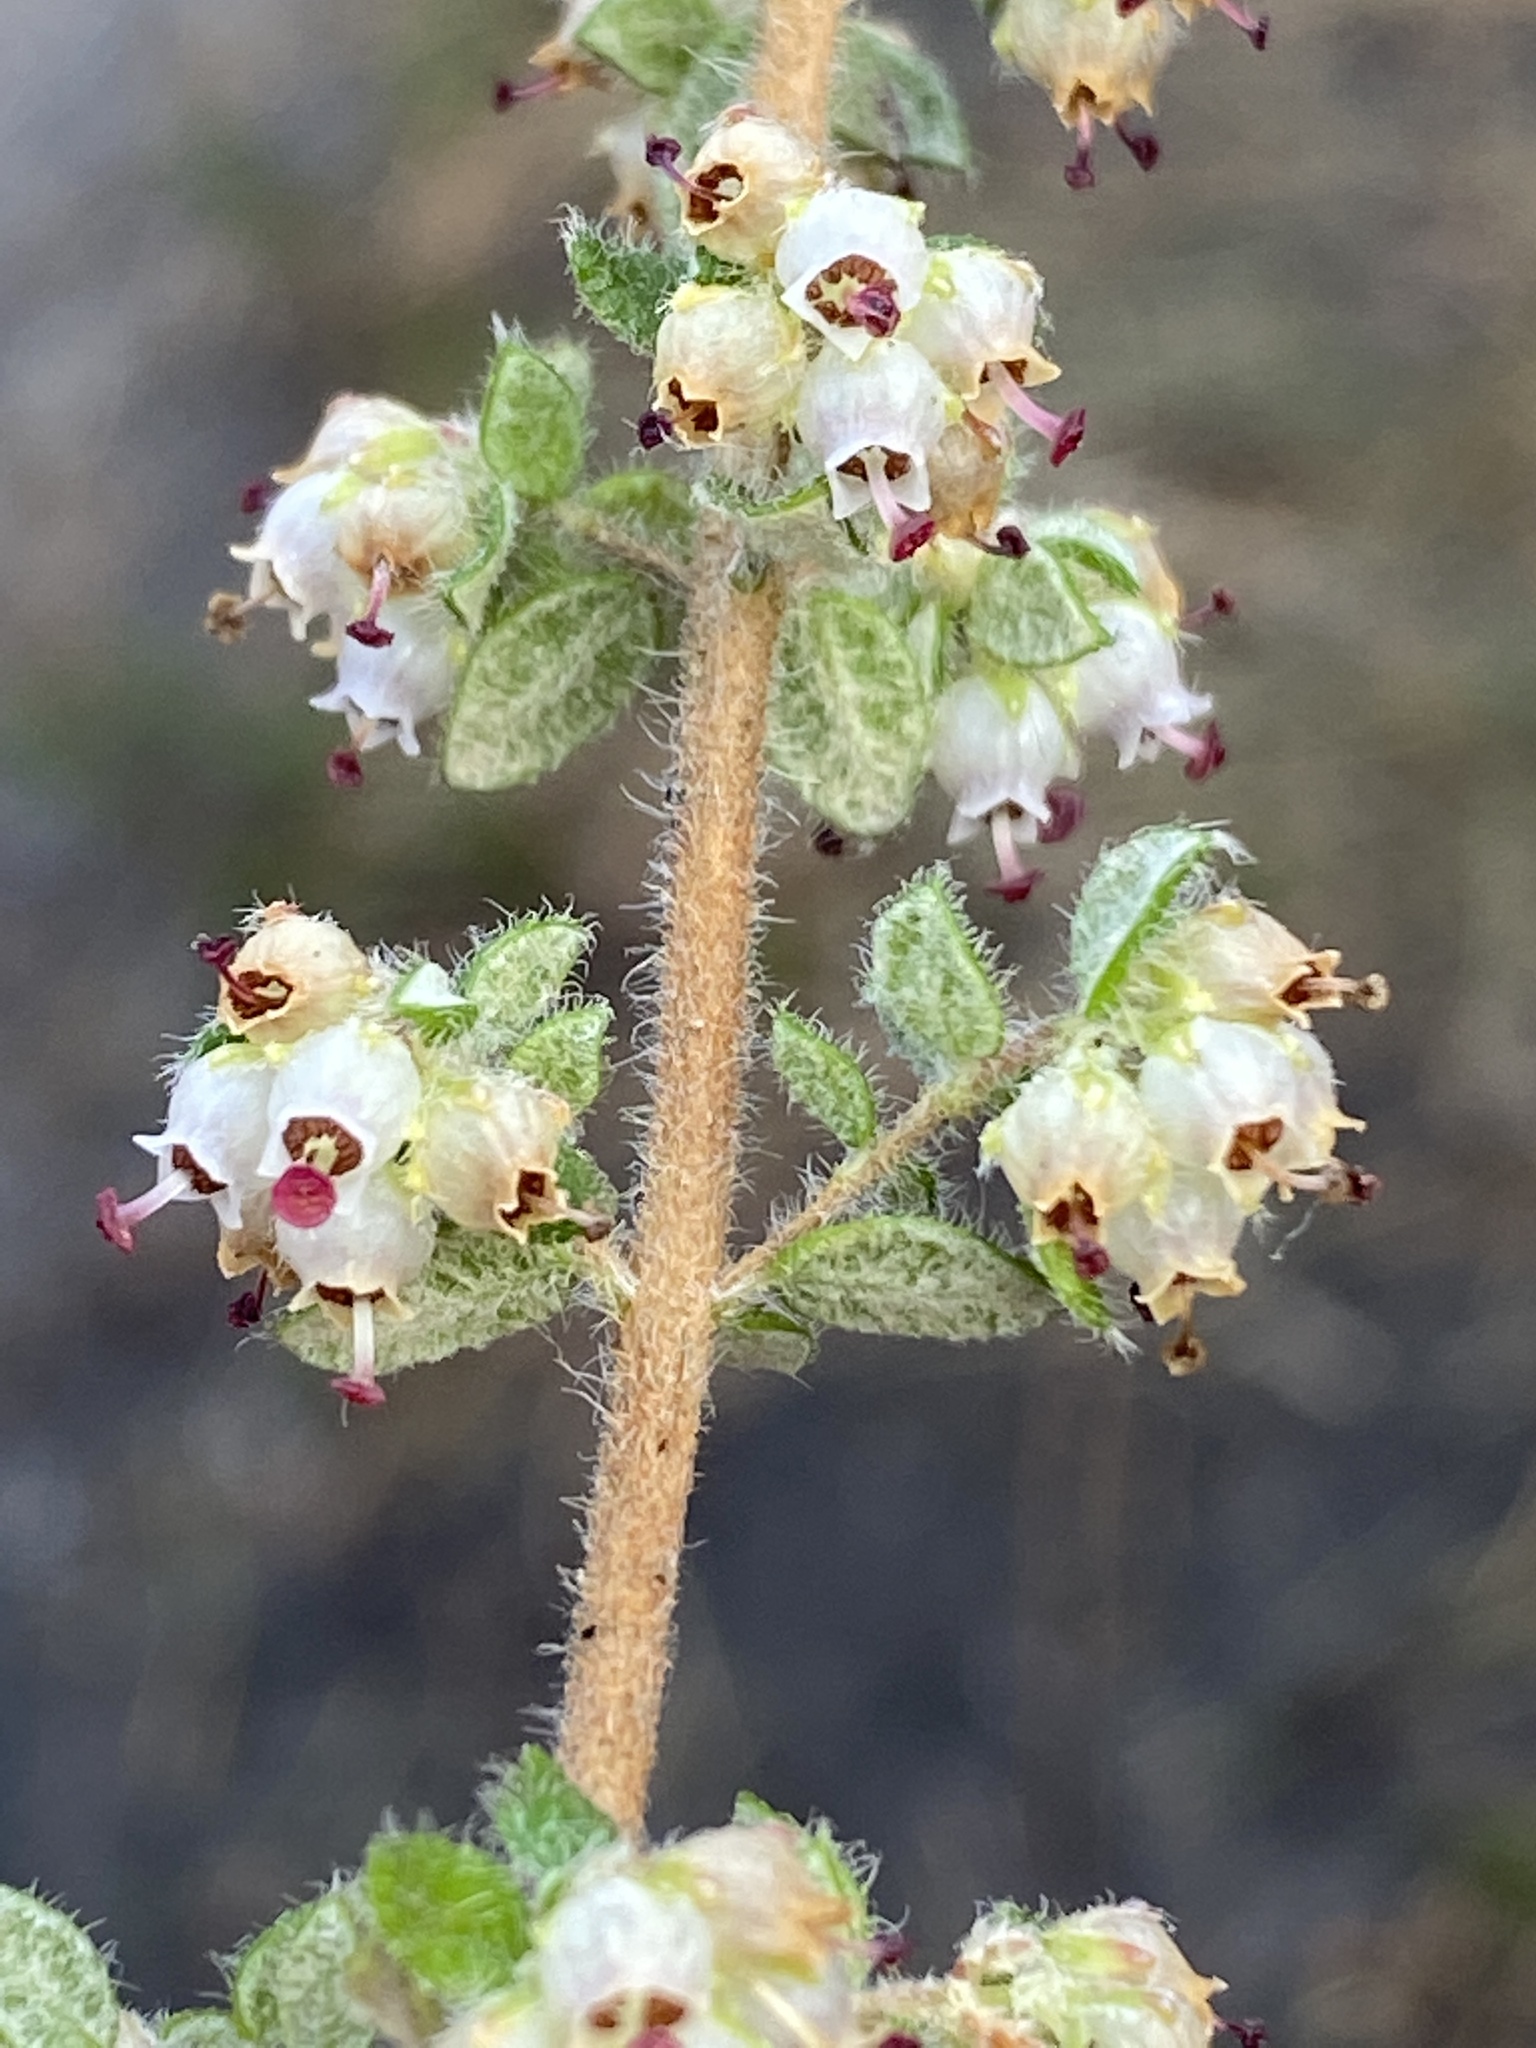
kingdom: Plantae
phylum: Tracheophyta
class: Magnoliopsida
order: Ericales
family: Ericaceae
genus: Erica
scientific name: Erica cordata
